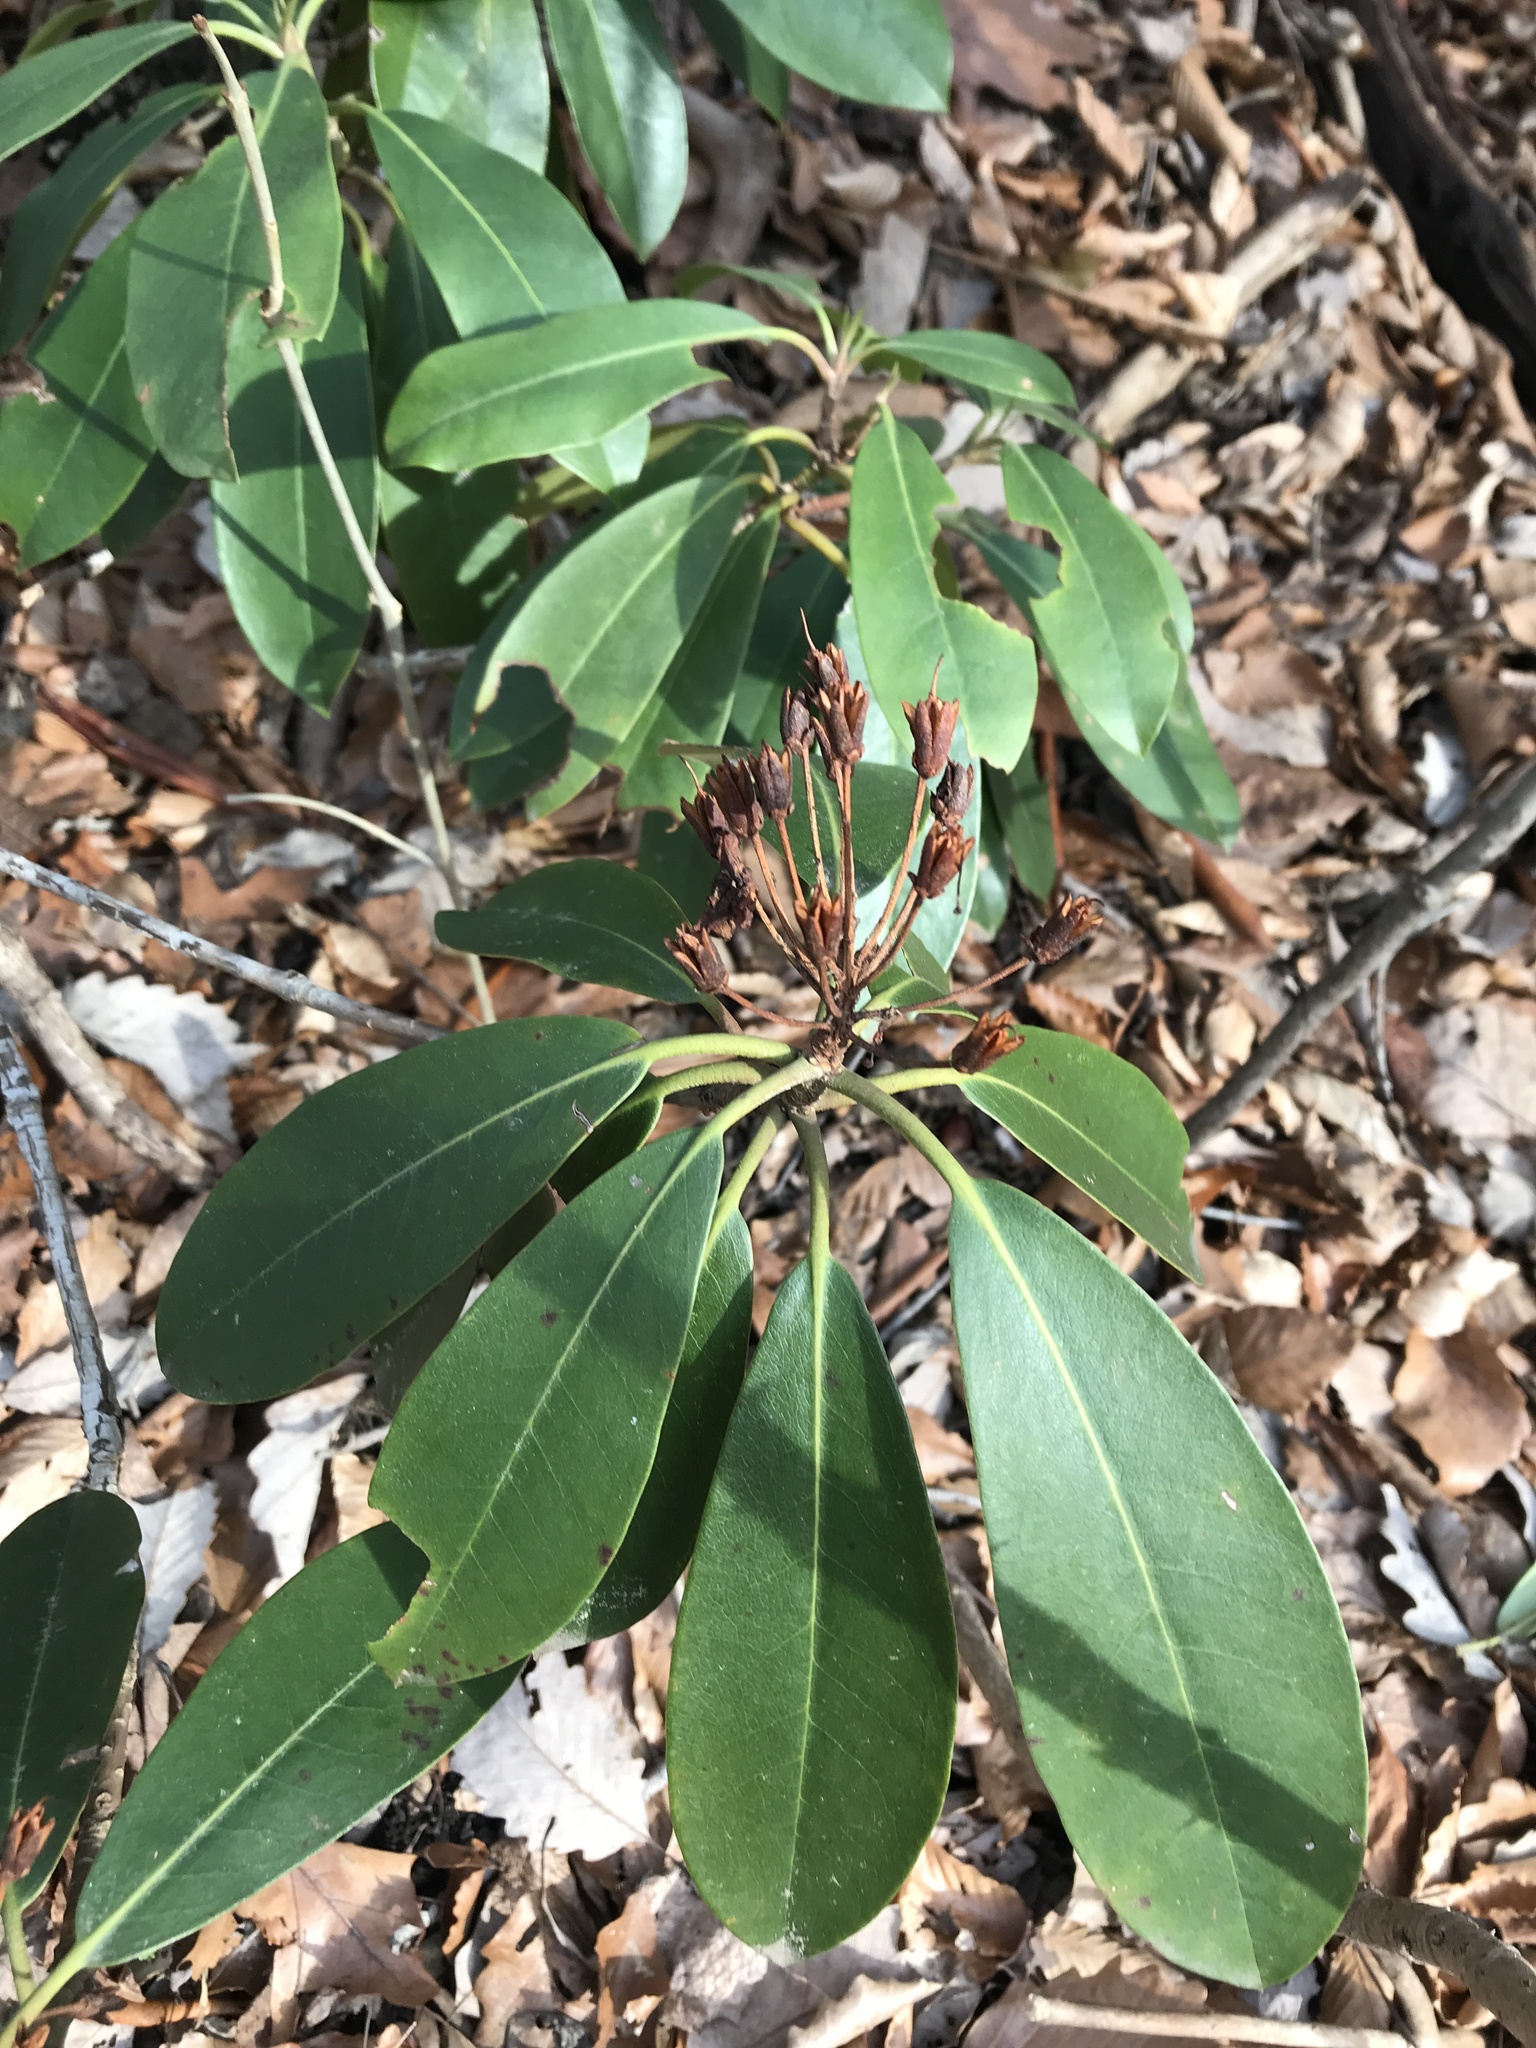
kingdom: Plantae
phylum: Tracheophyta
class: Magnoliopsida
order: Ericales
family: Ericaceae
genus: Rhododendron
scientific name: Rhododendron maximum
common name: Great rhododendron
